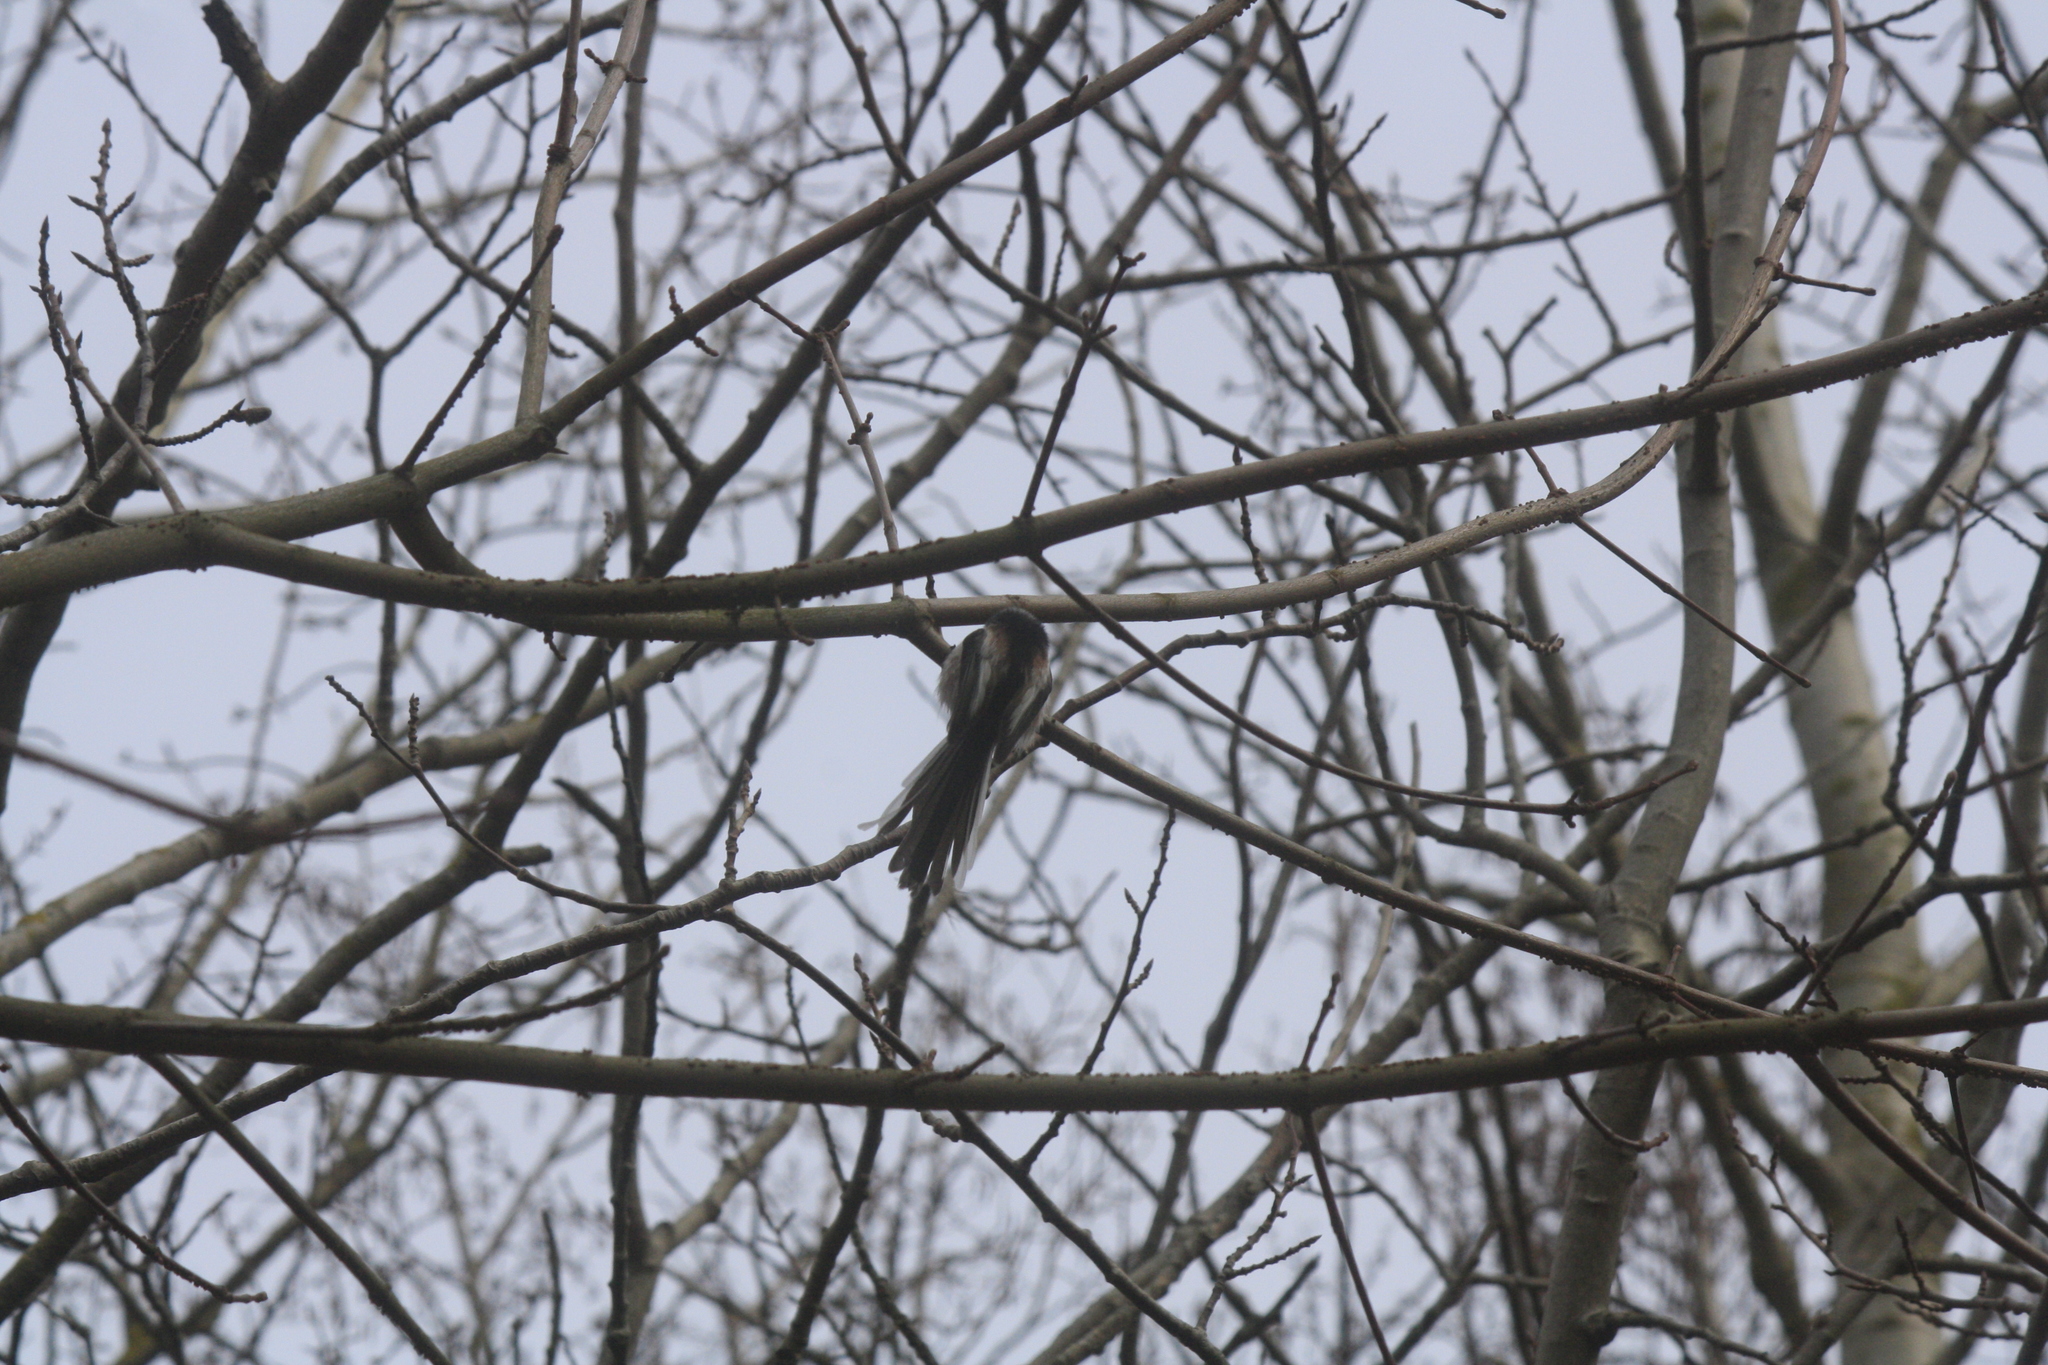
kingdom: Animalia
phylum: Chordata
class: Aves
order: Passeriformes
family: Aegithalidae
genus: Aegithalos
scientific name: Aegithalos caudatus
